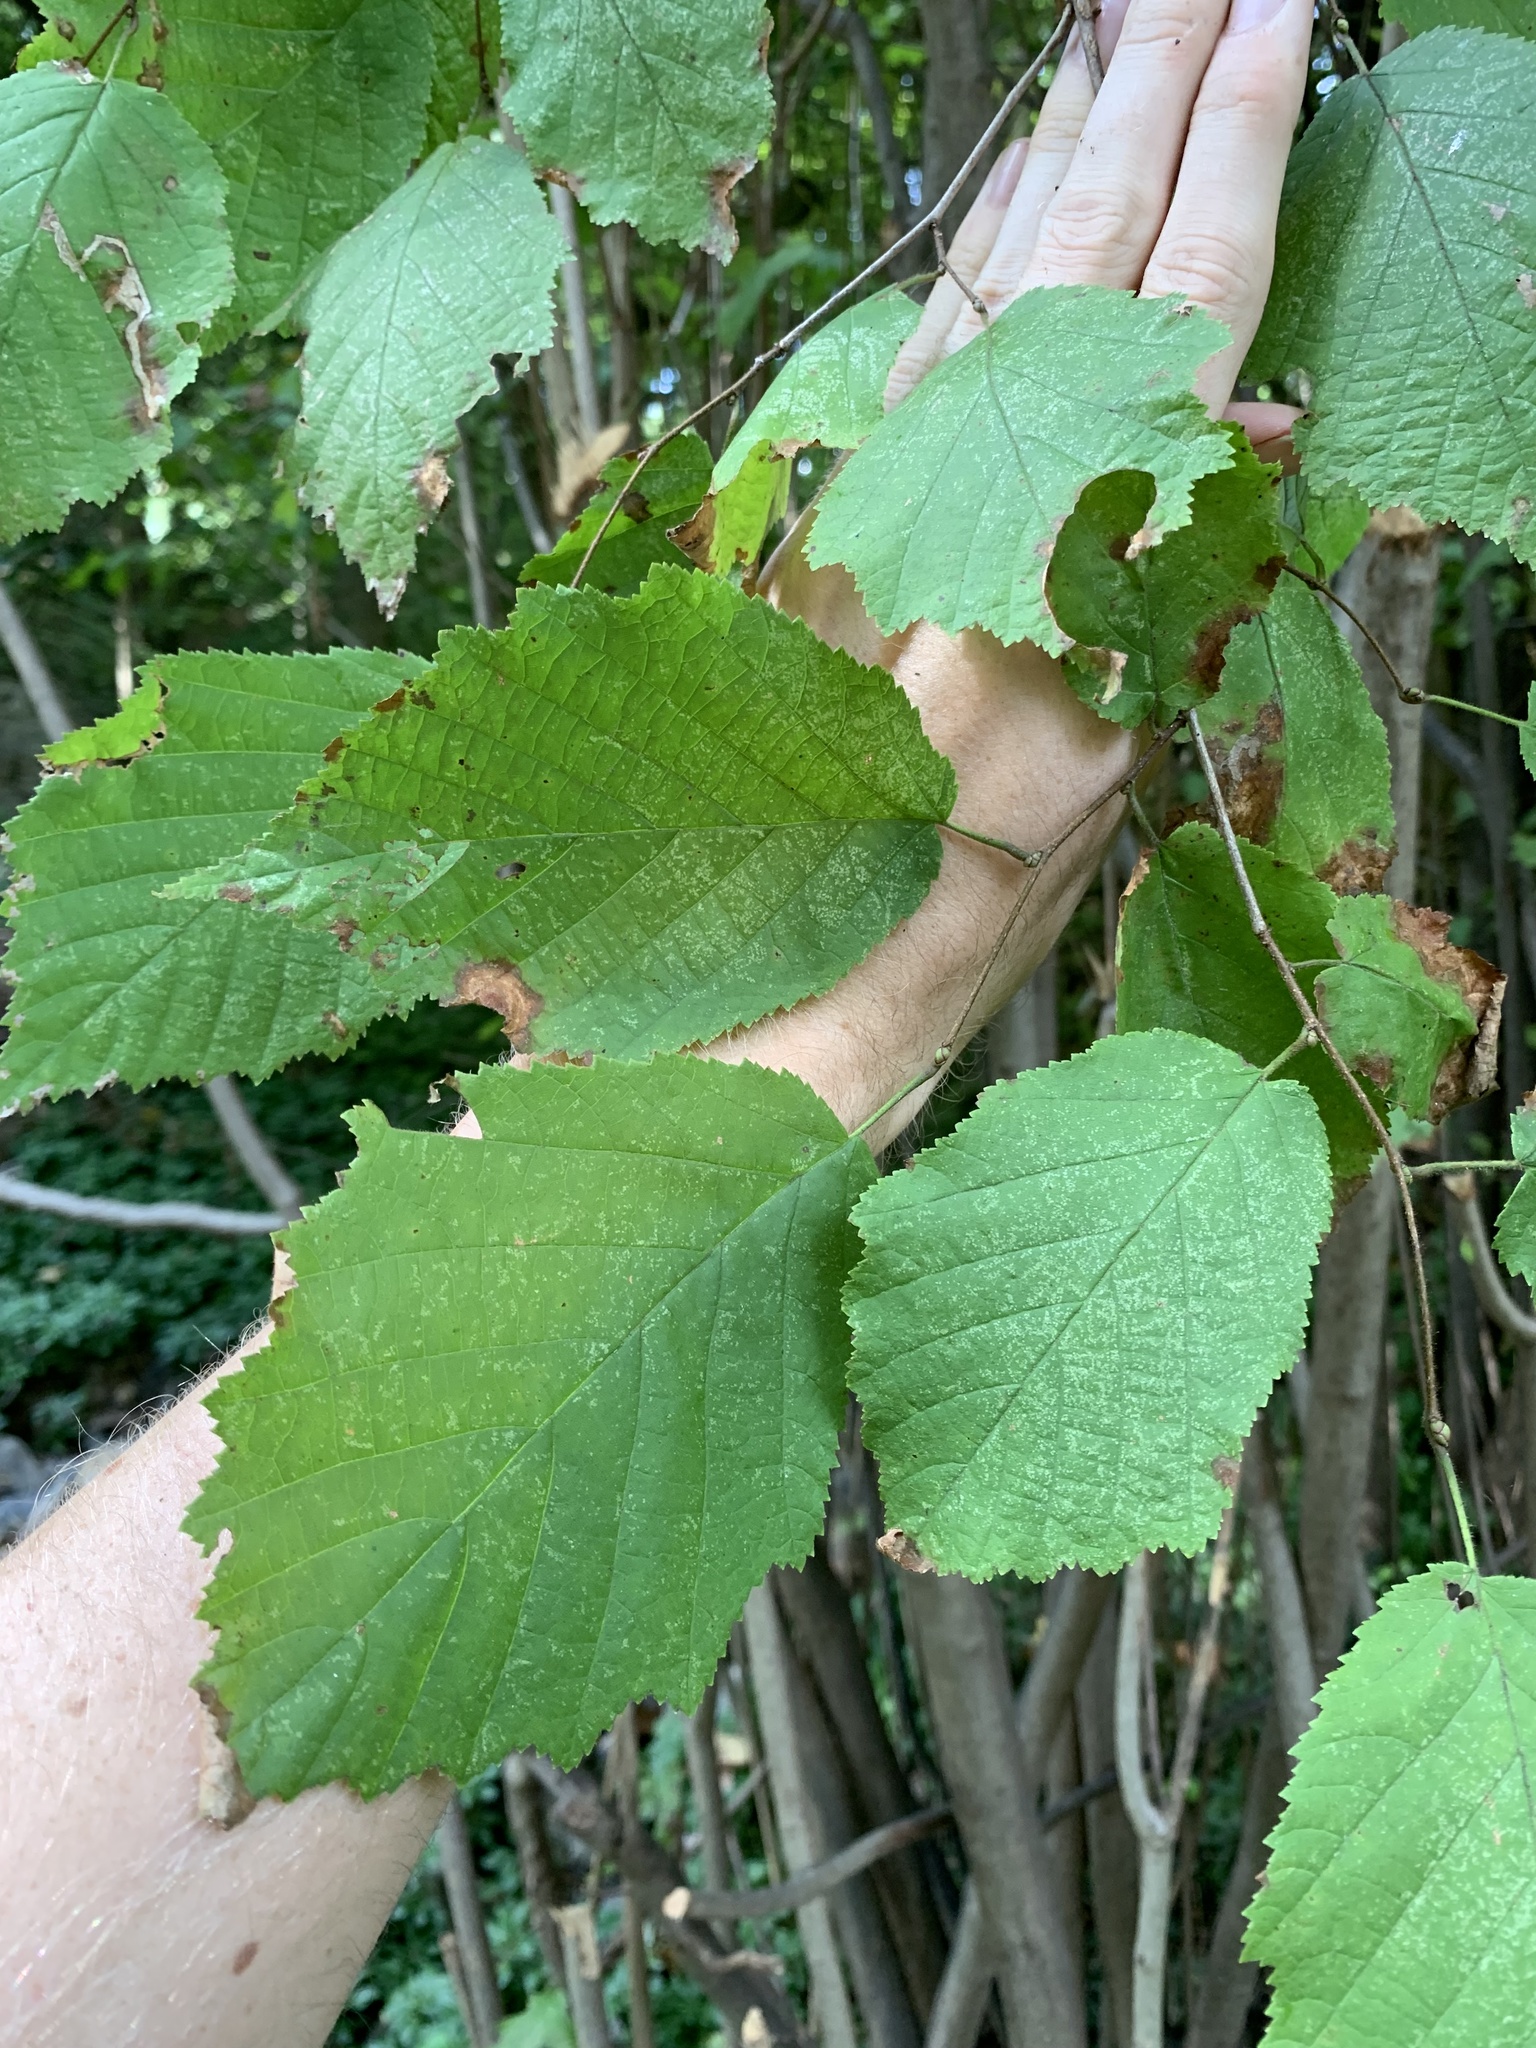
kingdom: Plantae
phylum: Tracheophyta
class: Magnoliopsida
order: Fagales
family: Betulaceae
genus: Corylus
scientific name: Corylus americana
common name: American hazel
